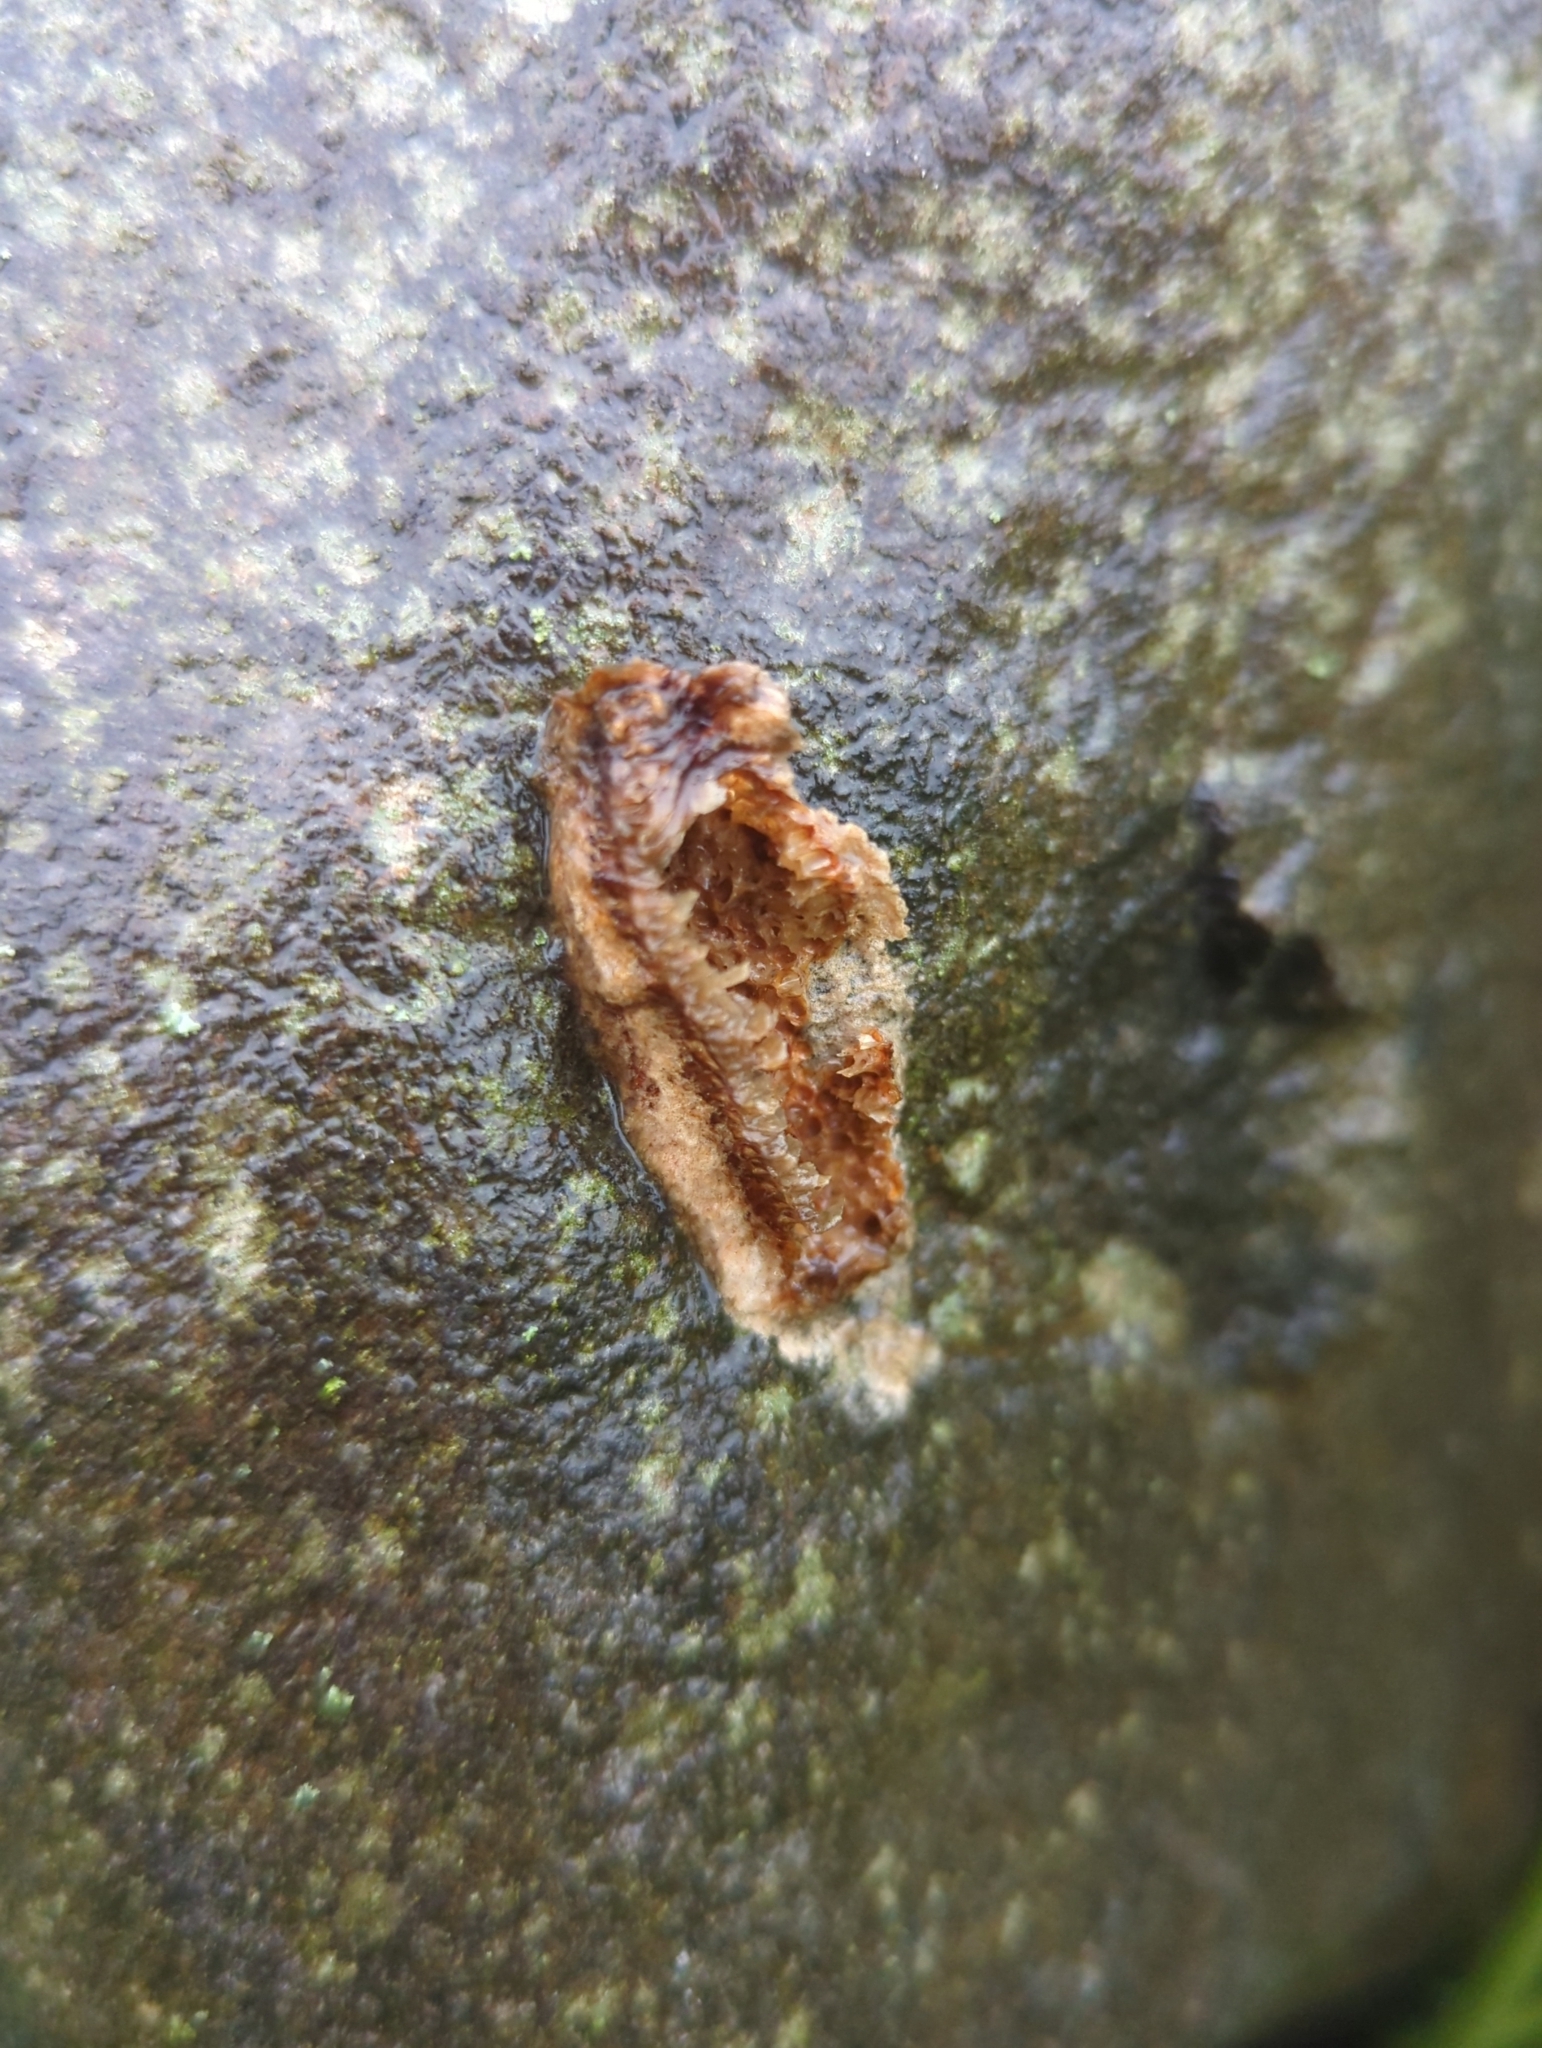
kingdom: Animalia
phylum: Arthropoda
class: Insecta
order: Mantodea
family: Mantidae
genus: Stagmomantis
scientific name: Stagmomantis carolina
